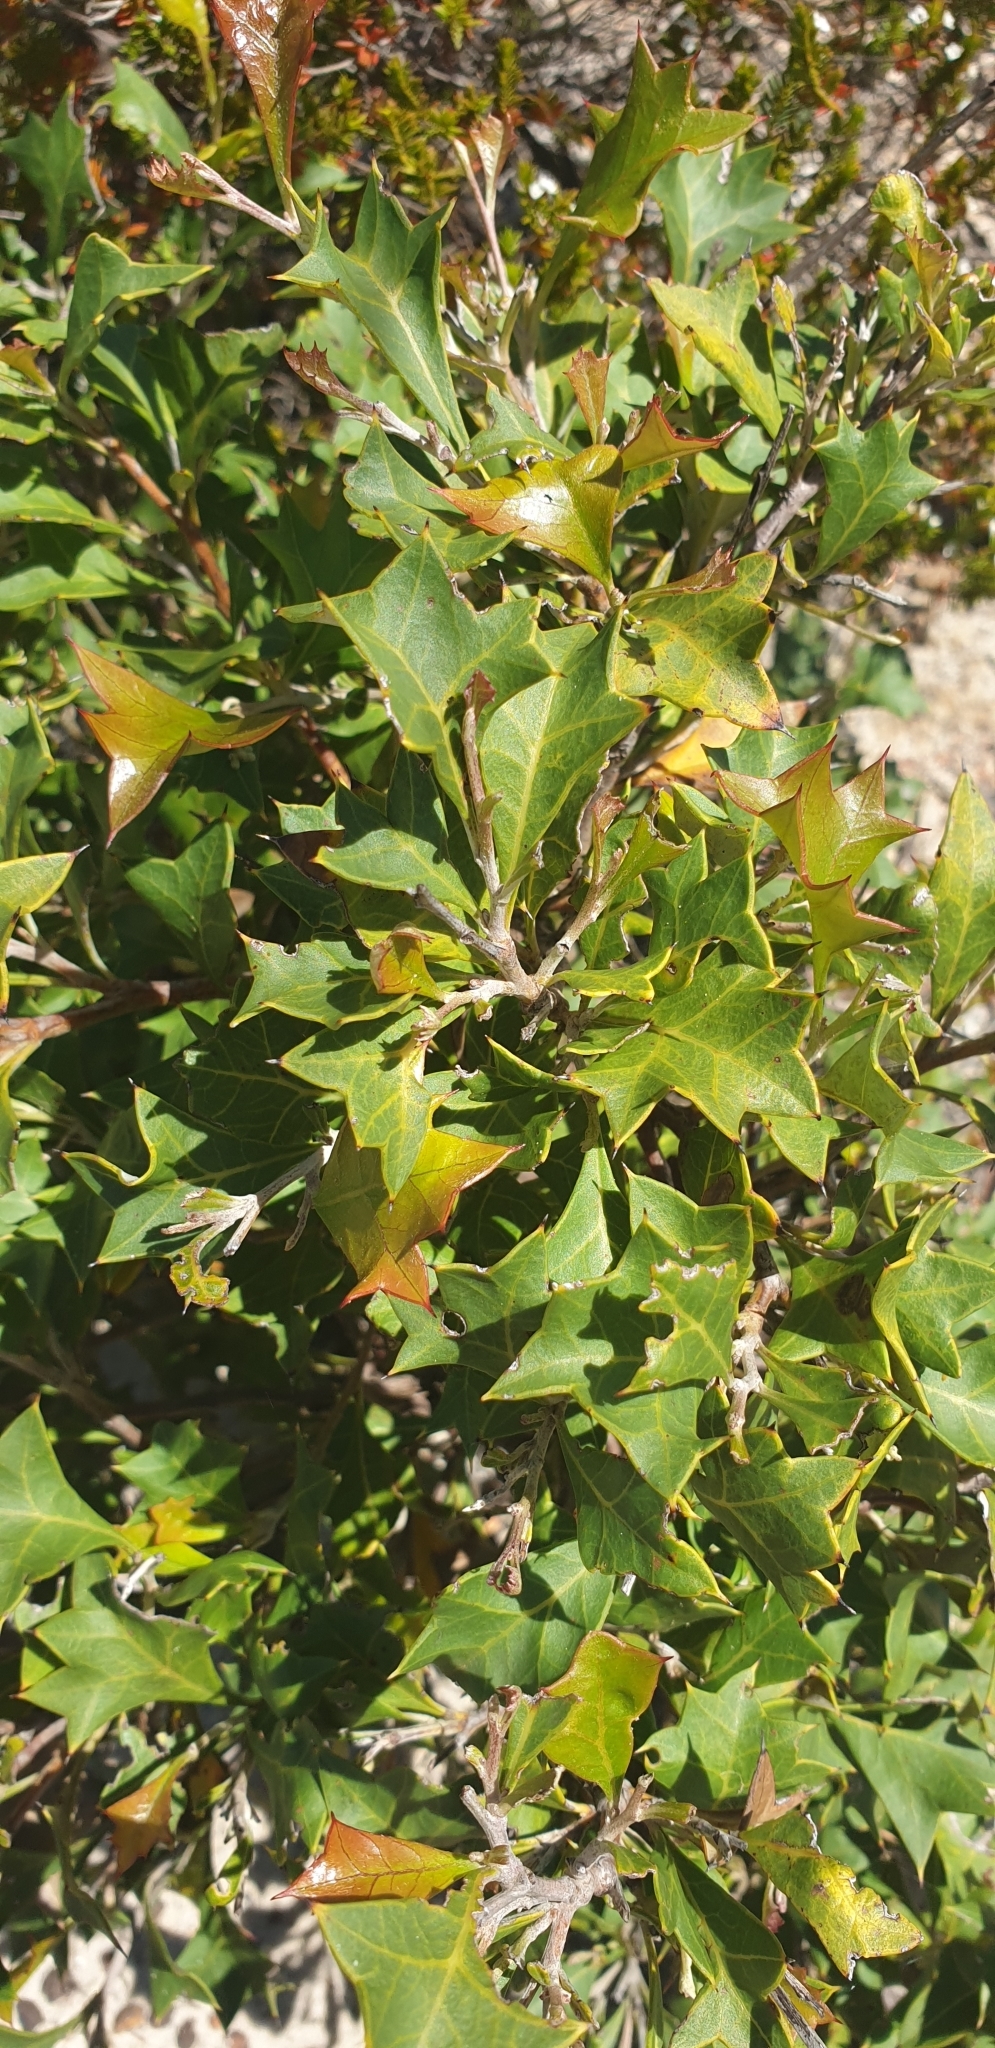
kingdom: Plantae
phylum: Tracheophyta
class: Magnoliopsida
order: Proteales
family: Proteaceae
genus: Grevillea
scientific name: Grevillea dilatata
